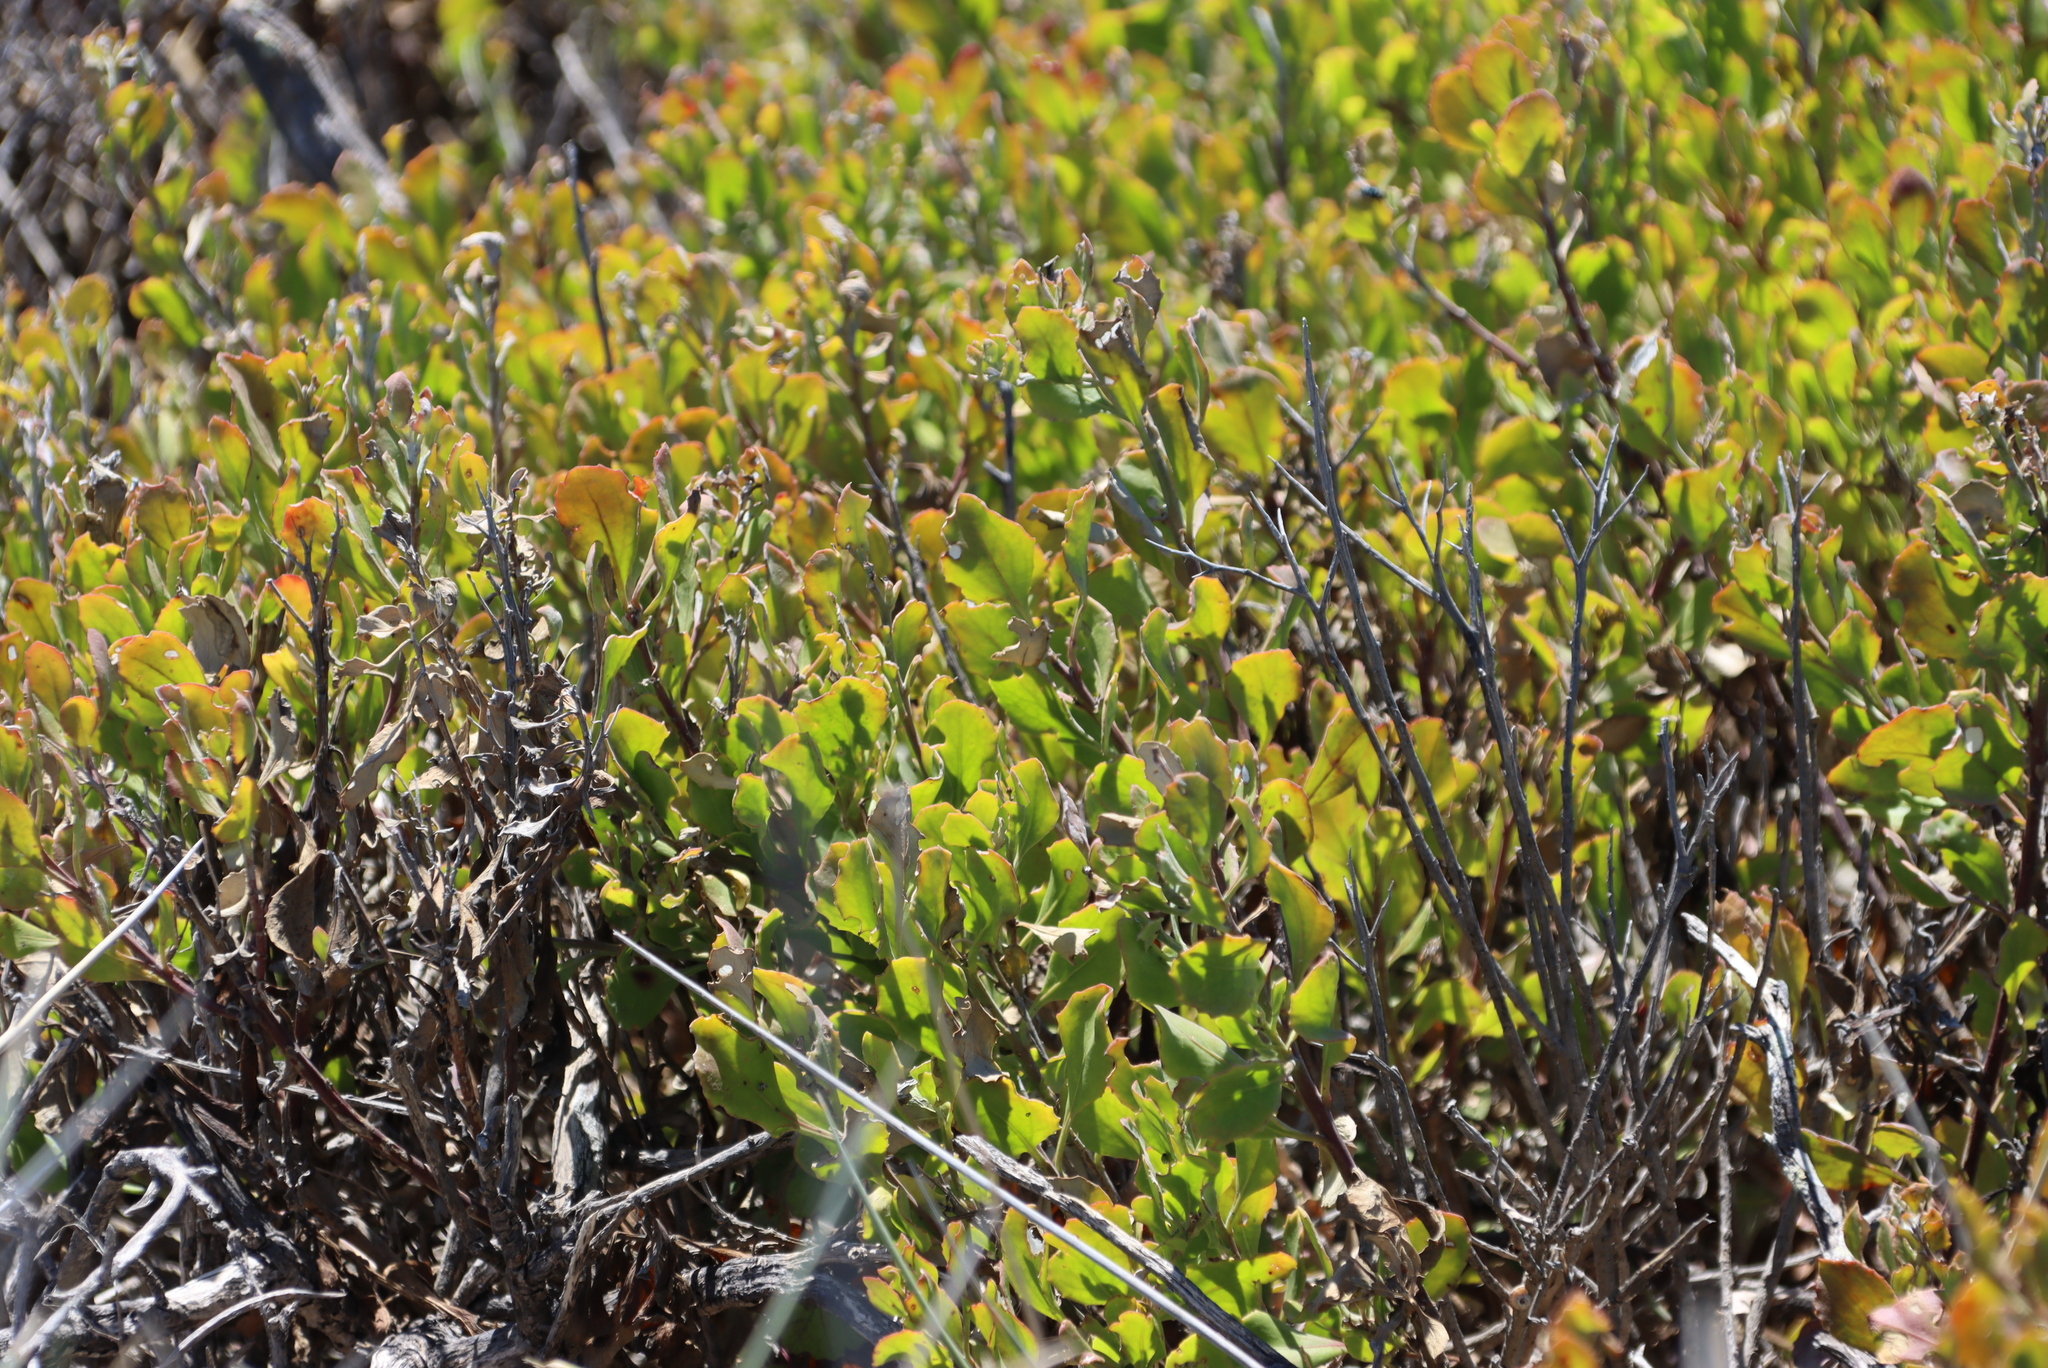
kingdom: Plantae
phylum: Tracheophyta
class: Magnoliopsida
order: Asterales
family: Asteraceae
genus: Osteospermum
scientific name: Osteospermum incanum
